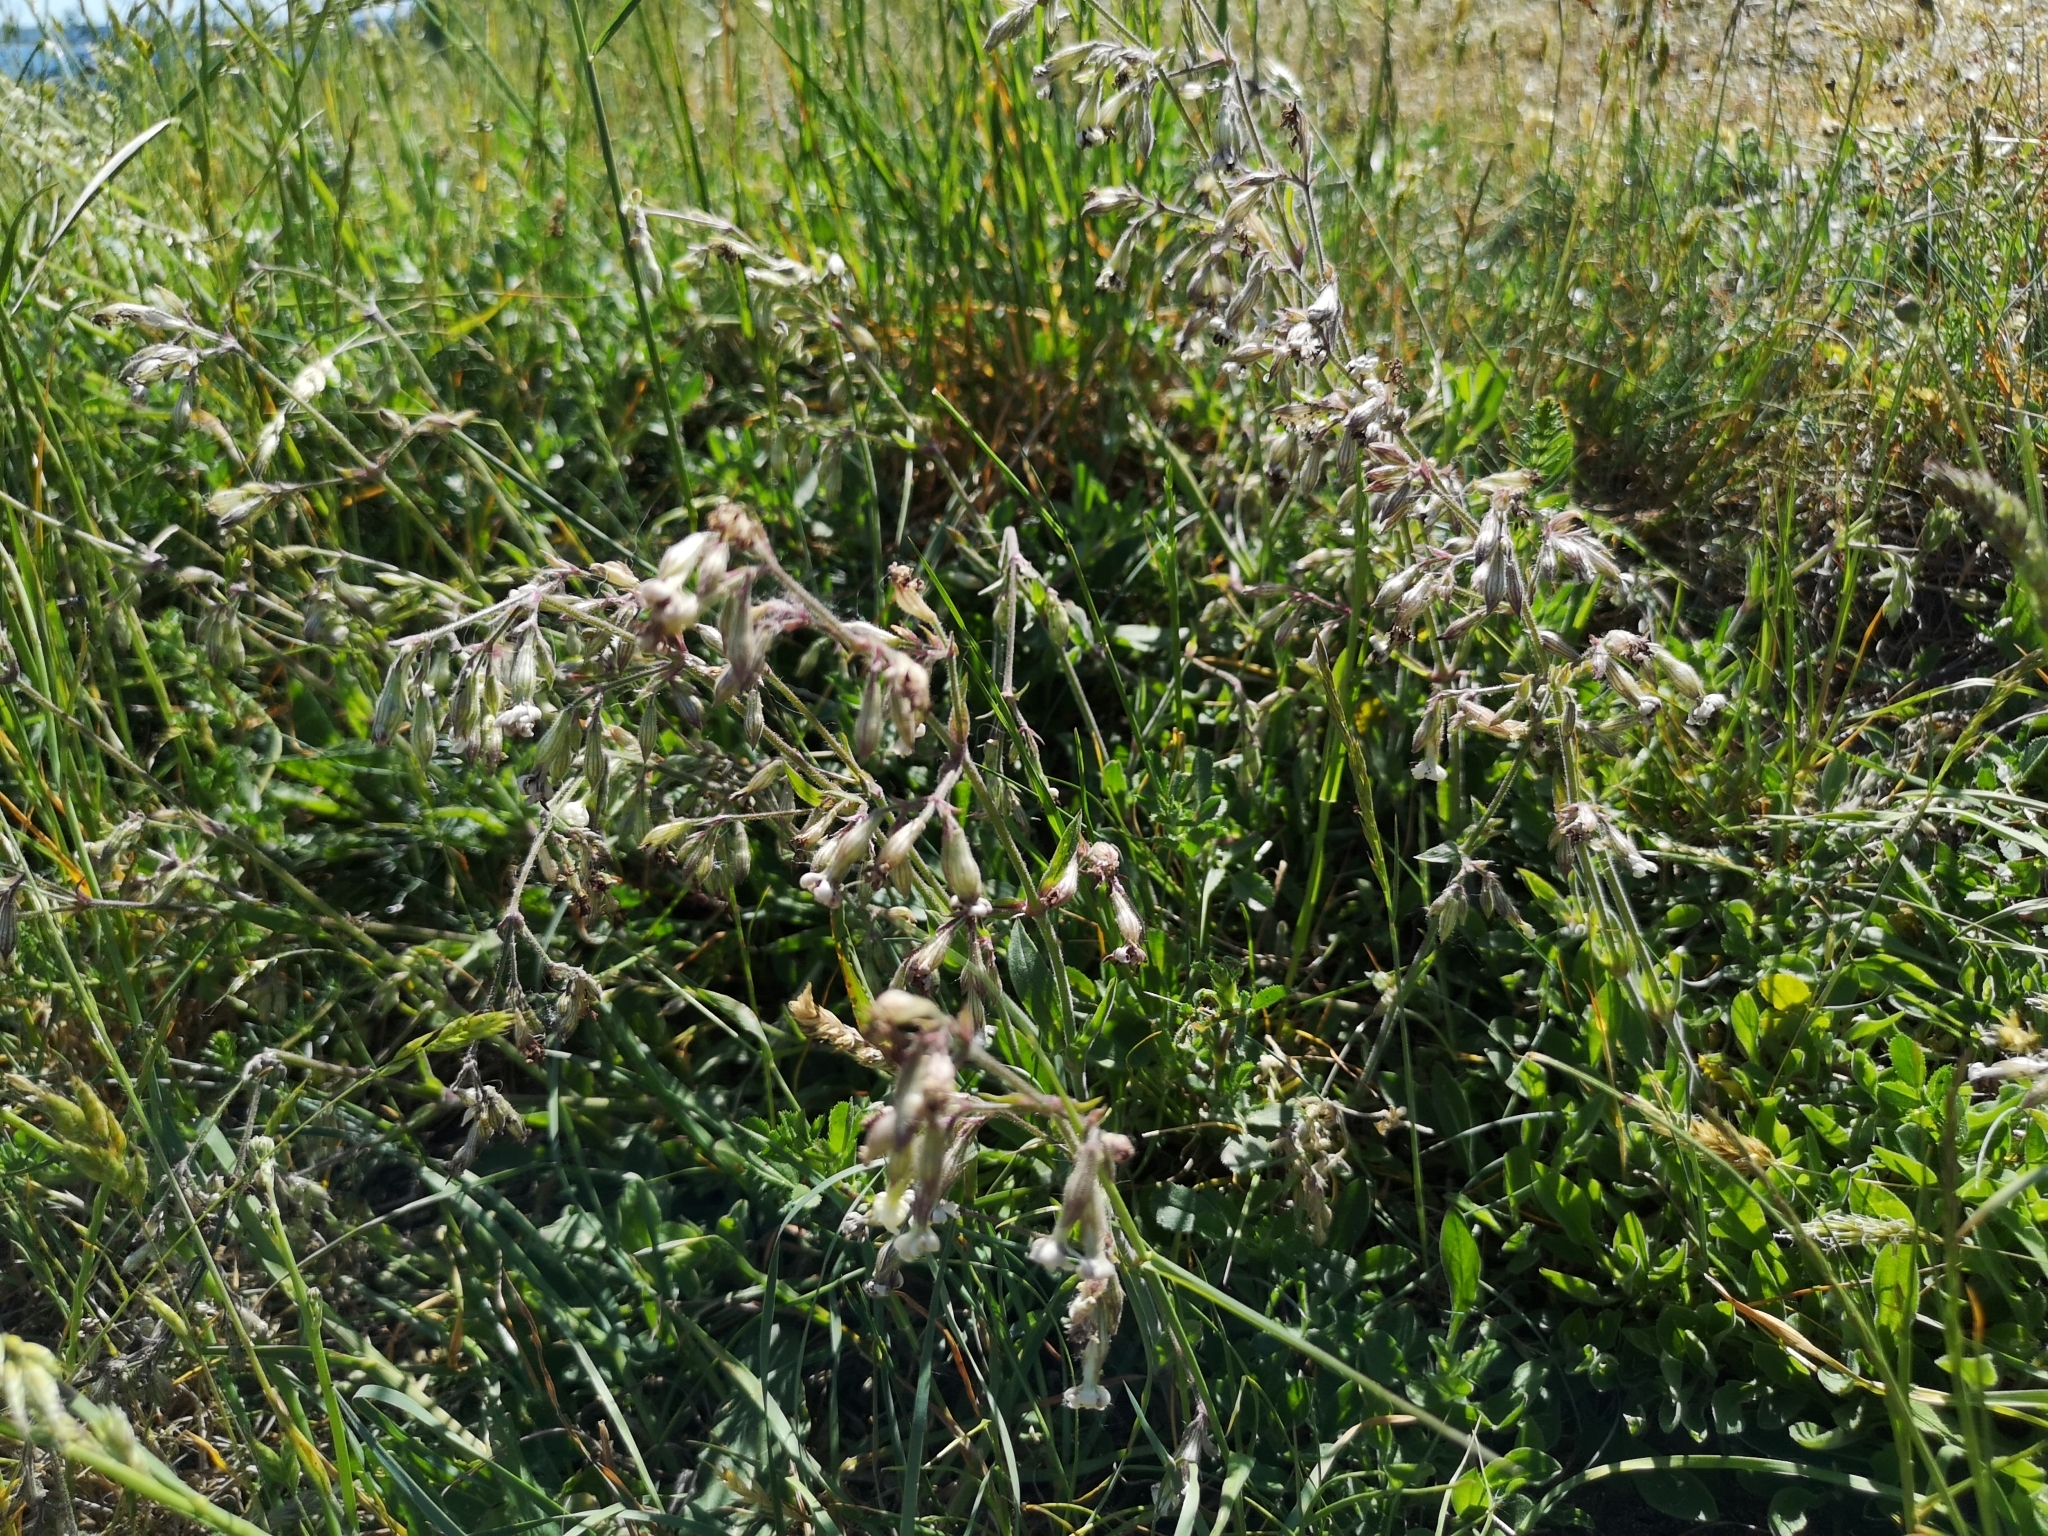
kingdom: Plantae
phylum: Tracheophyta
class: Magnoliopsida
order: Caryophyllales
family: Caryophyllaceae
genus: Silene
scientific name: Silene nutans
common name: Nottingham catchfly
